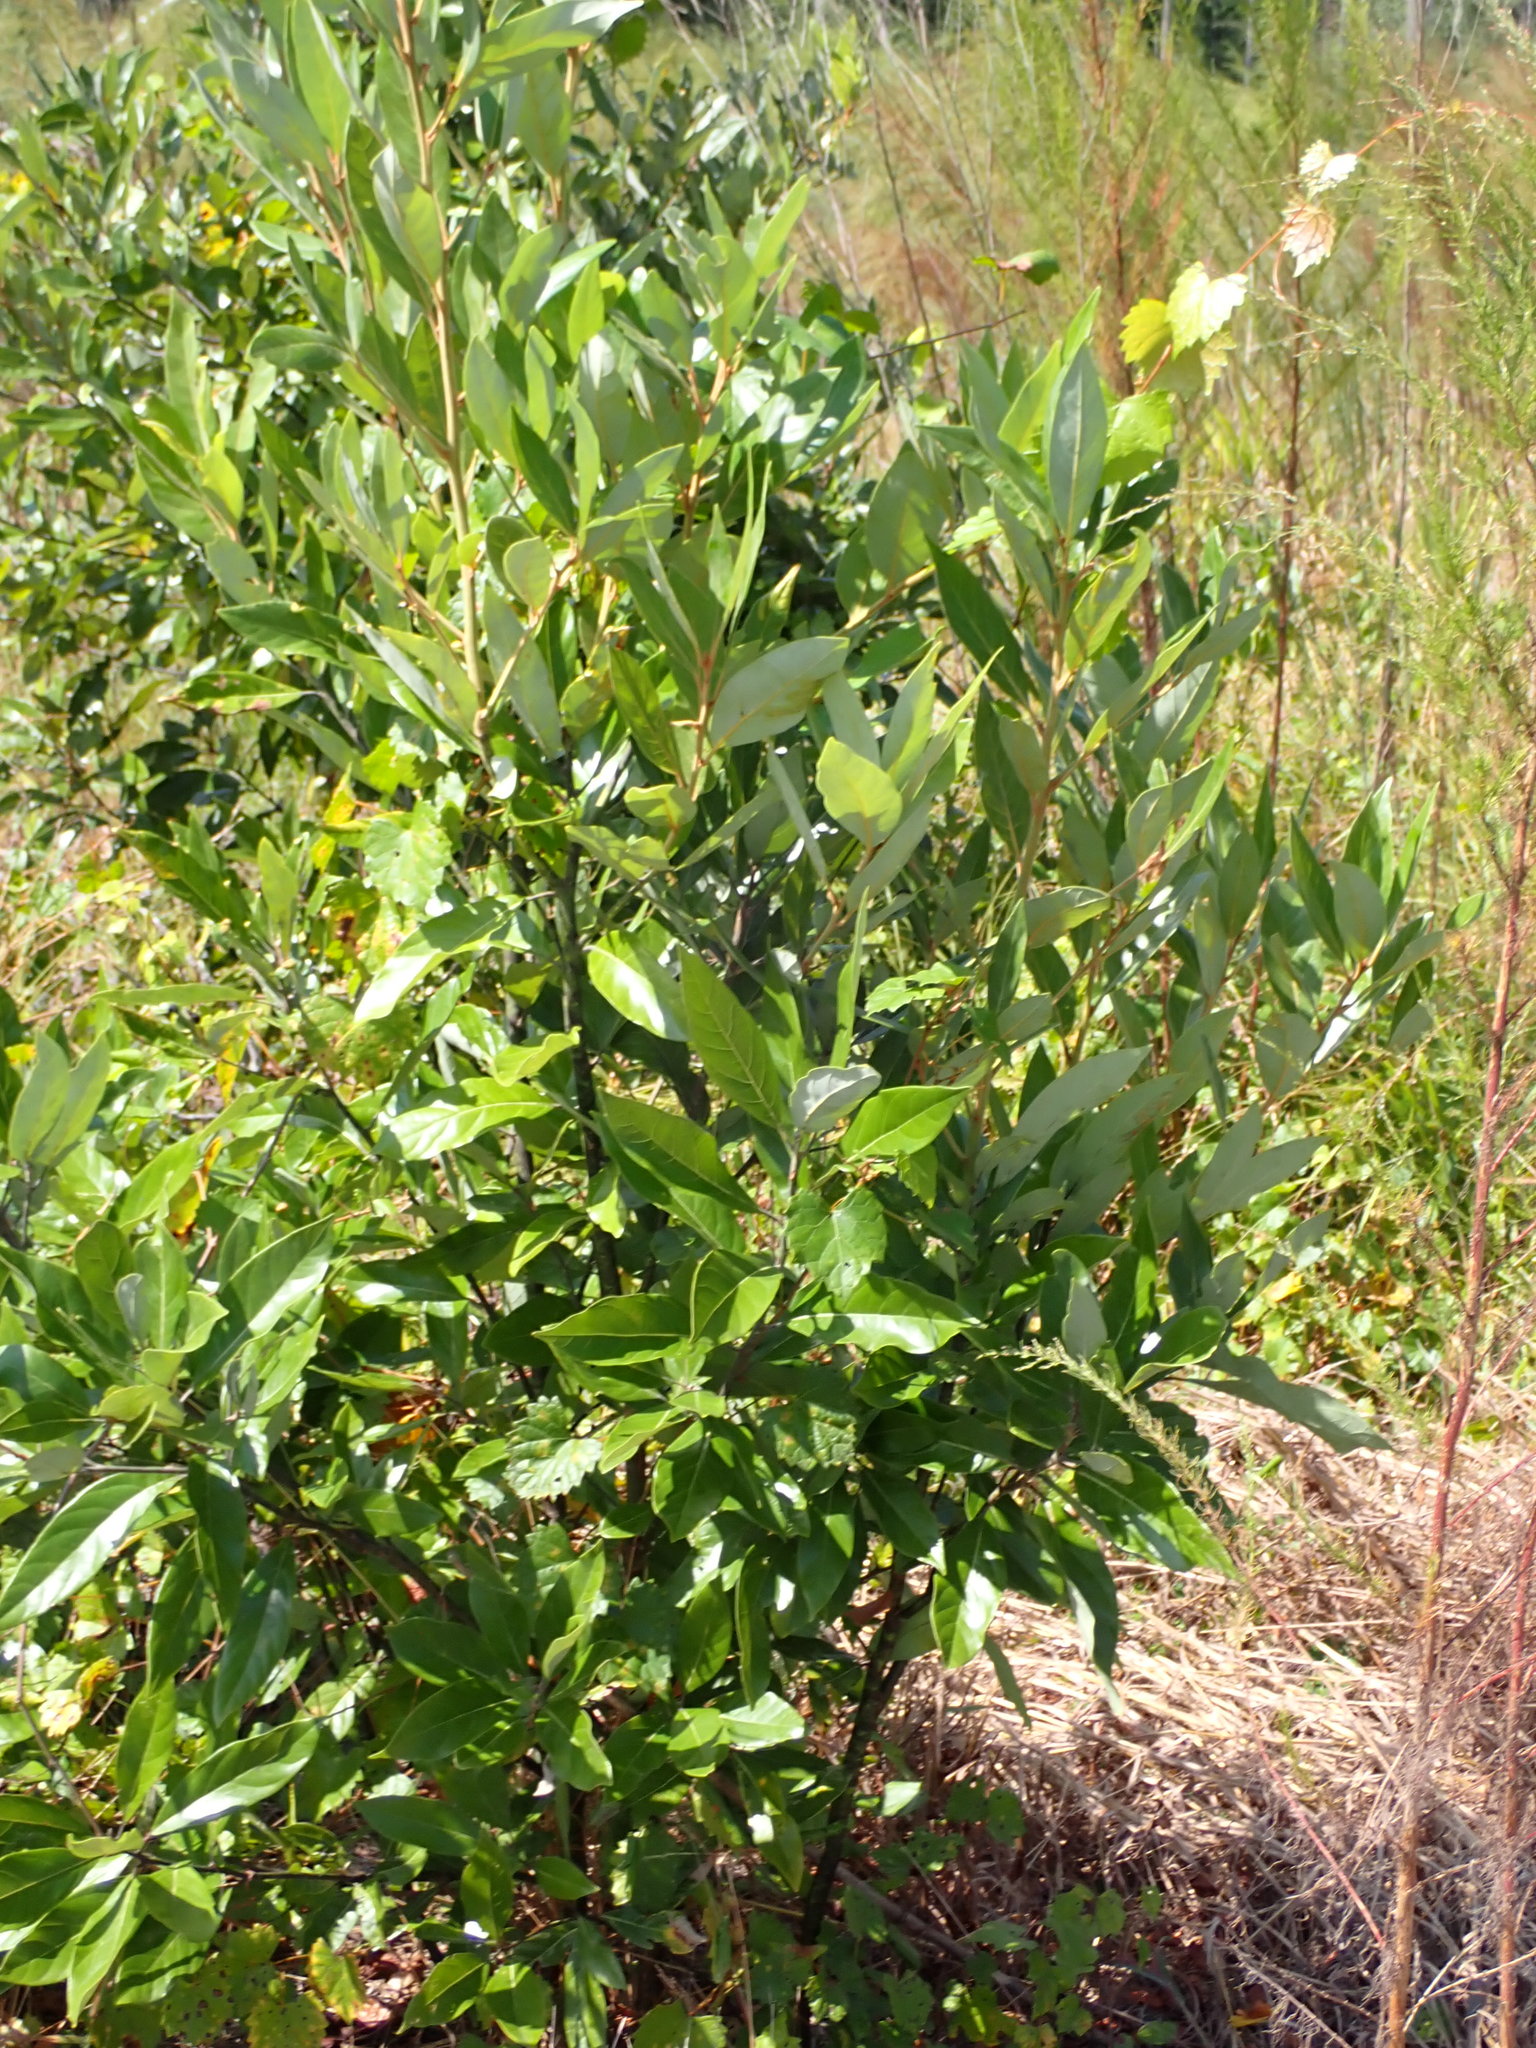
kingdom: Plantae
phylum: Tracheophyta
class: Magnoliopsida
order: Laurales
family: Lauraceae
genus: Persea
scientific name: Persea palustris
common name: Swampbay
